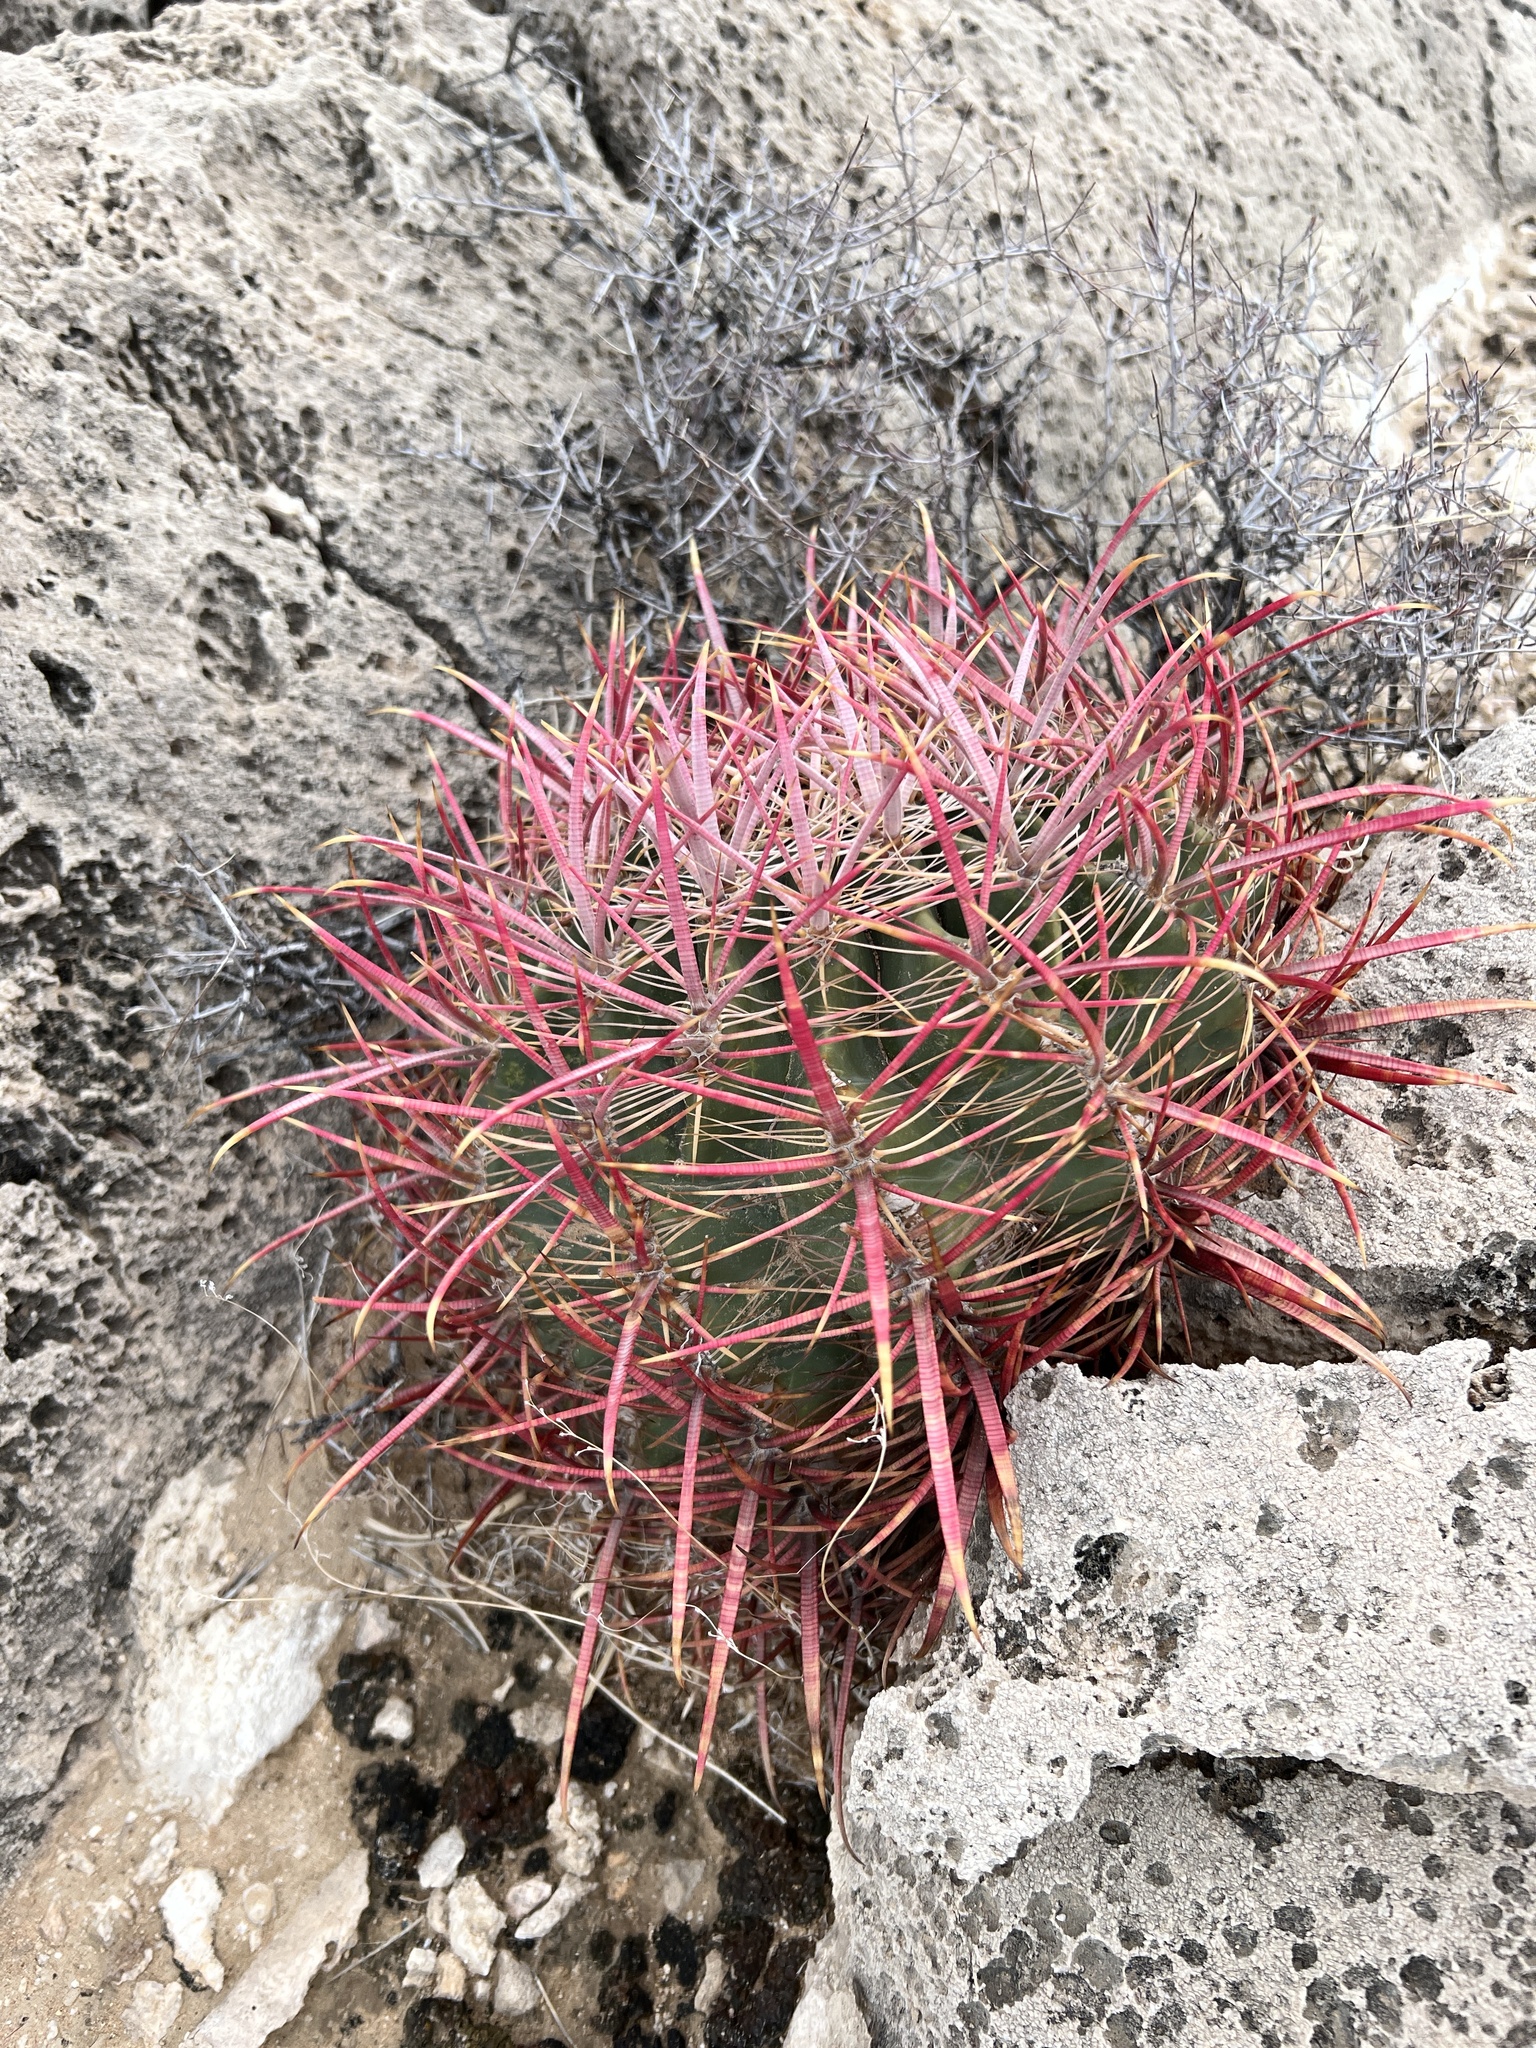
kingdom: Plantae
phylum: Tracheophyta
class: Magnoliopsida
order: Caryophyllales
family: Cactaceae
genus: Ferocactus
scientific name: Ferocactus cylindraceus
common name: California barrel cactus
